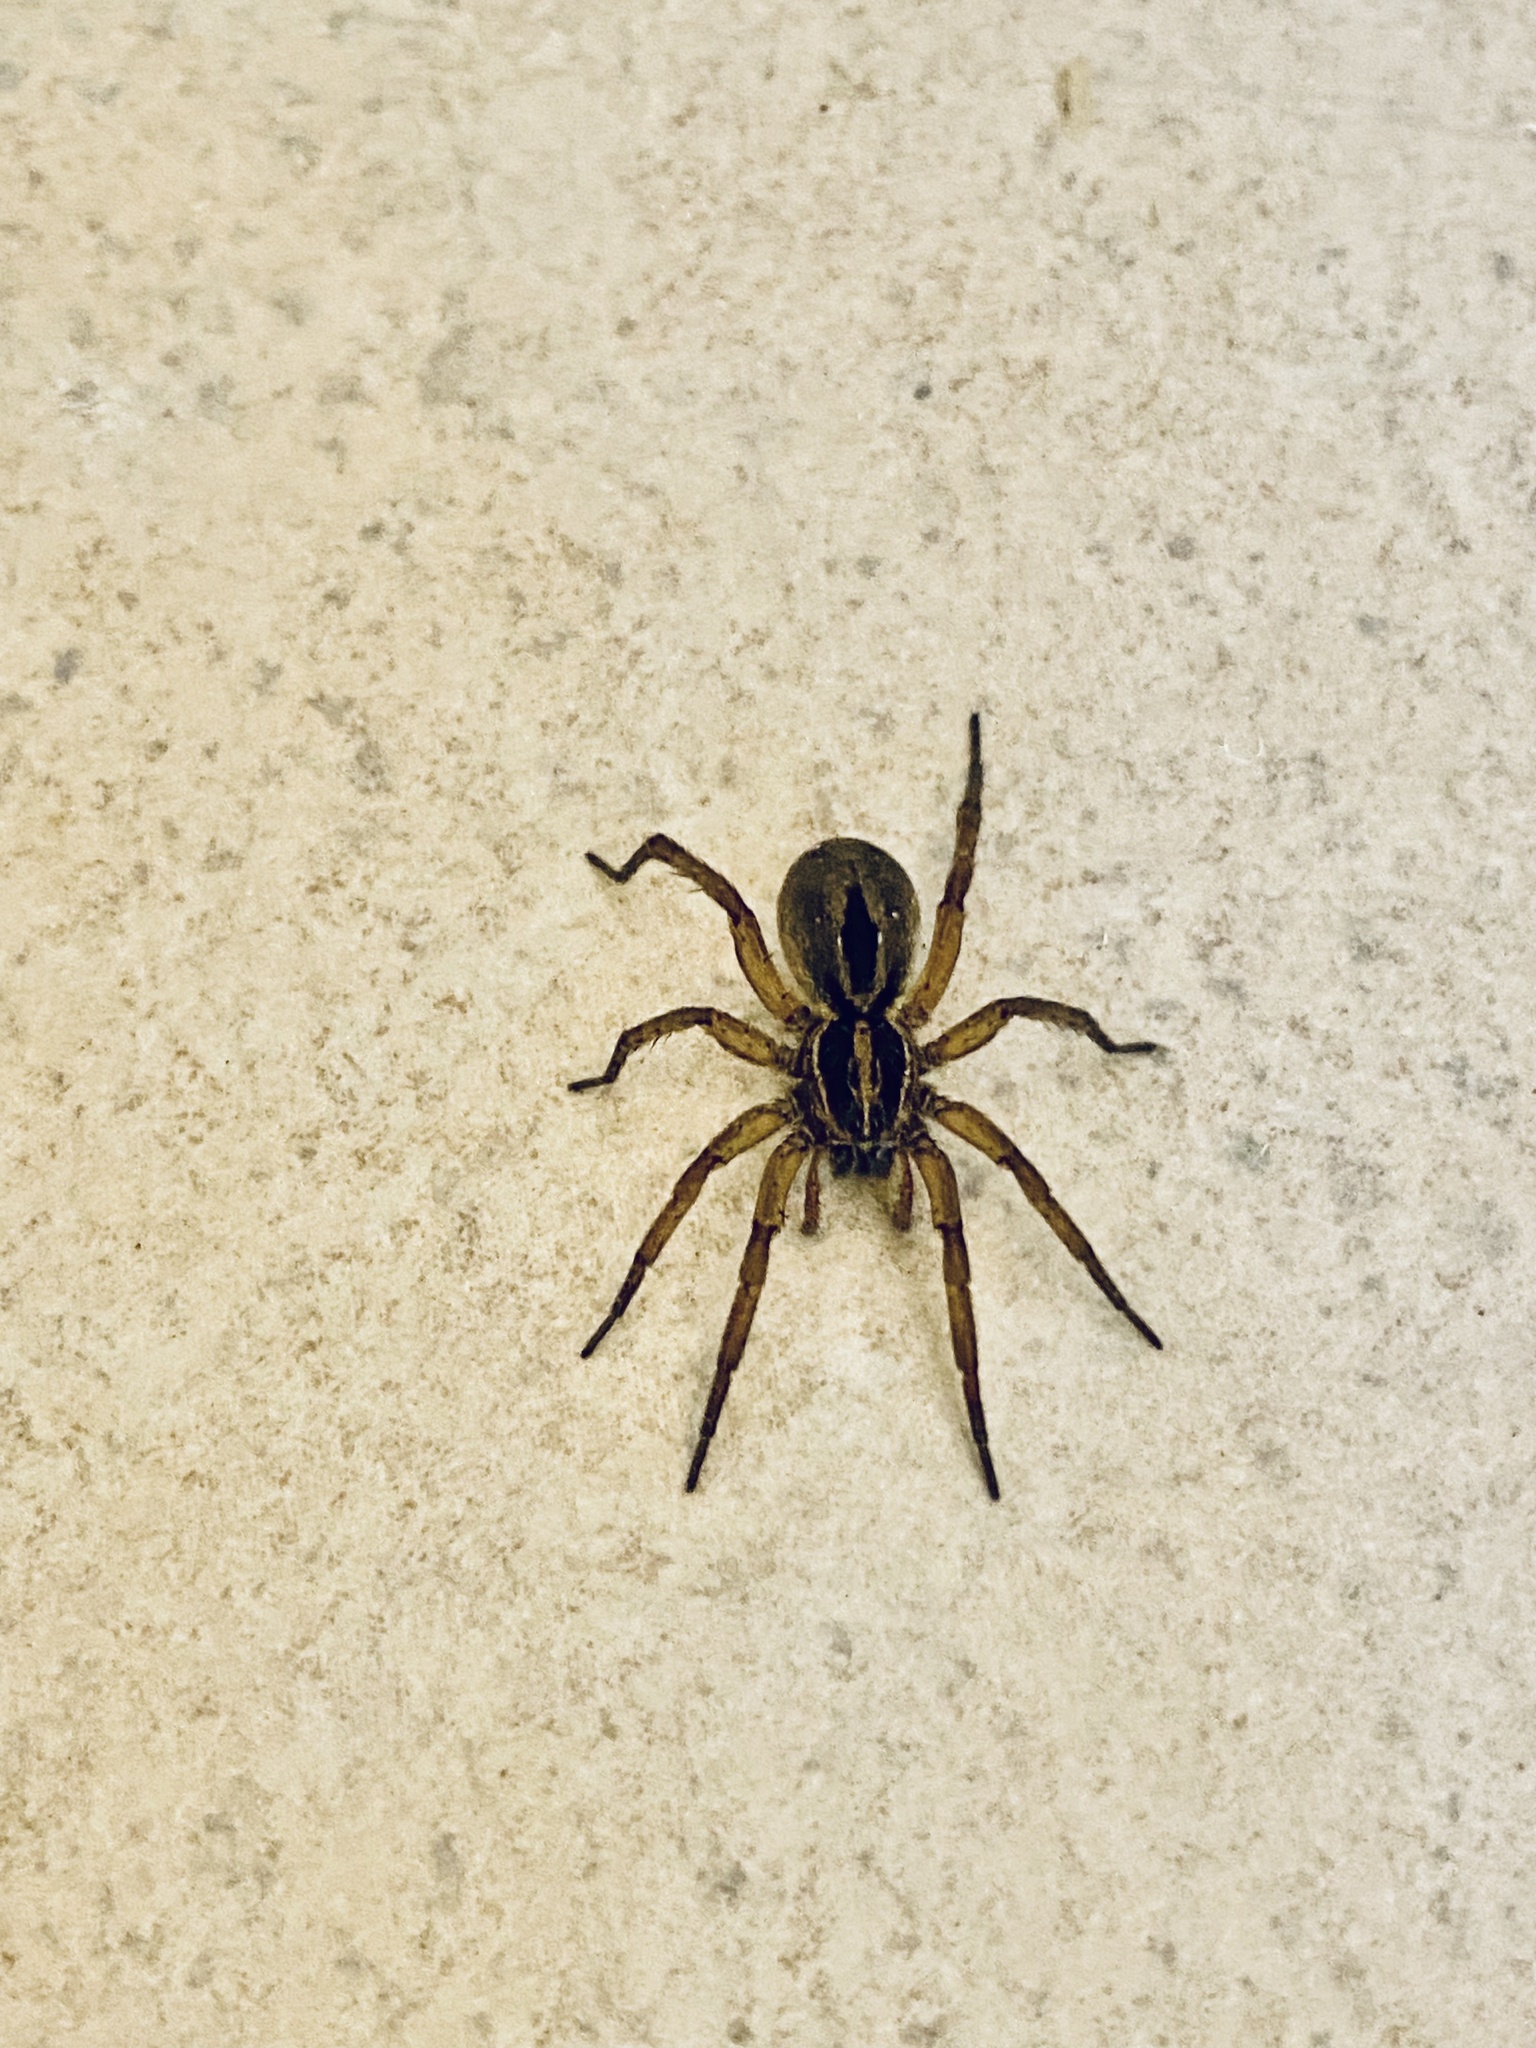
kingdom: Animalia
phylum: Arthropoda
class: Arachnida
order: Araneae
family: Lycosidae
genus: Tigrosa
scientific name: Tigrosa annexa
